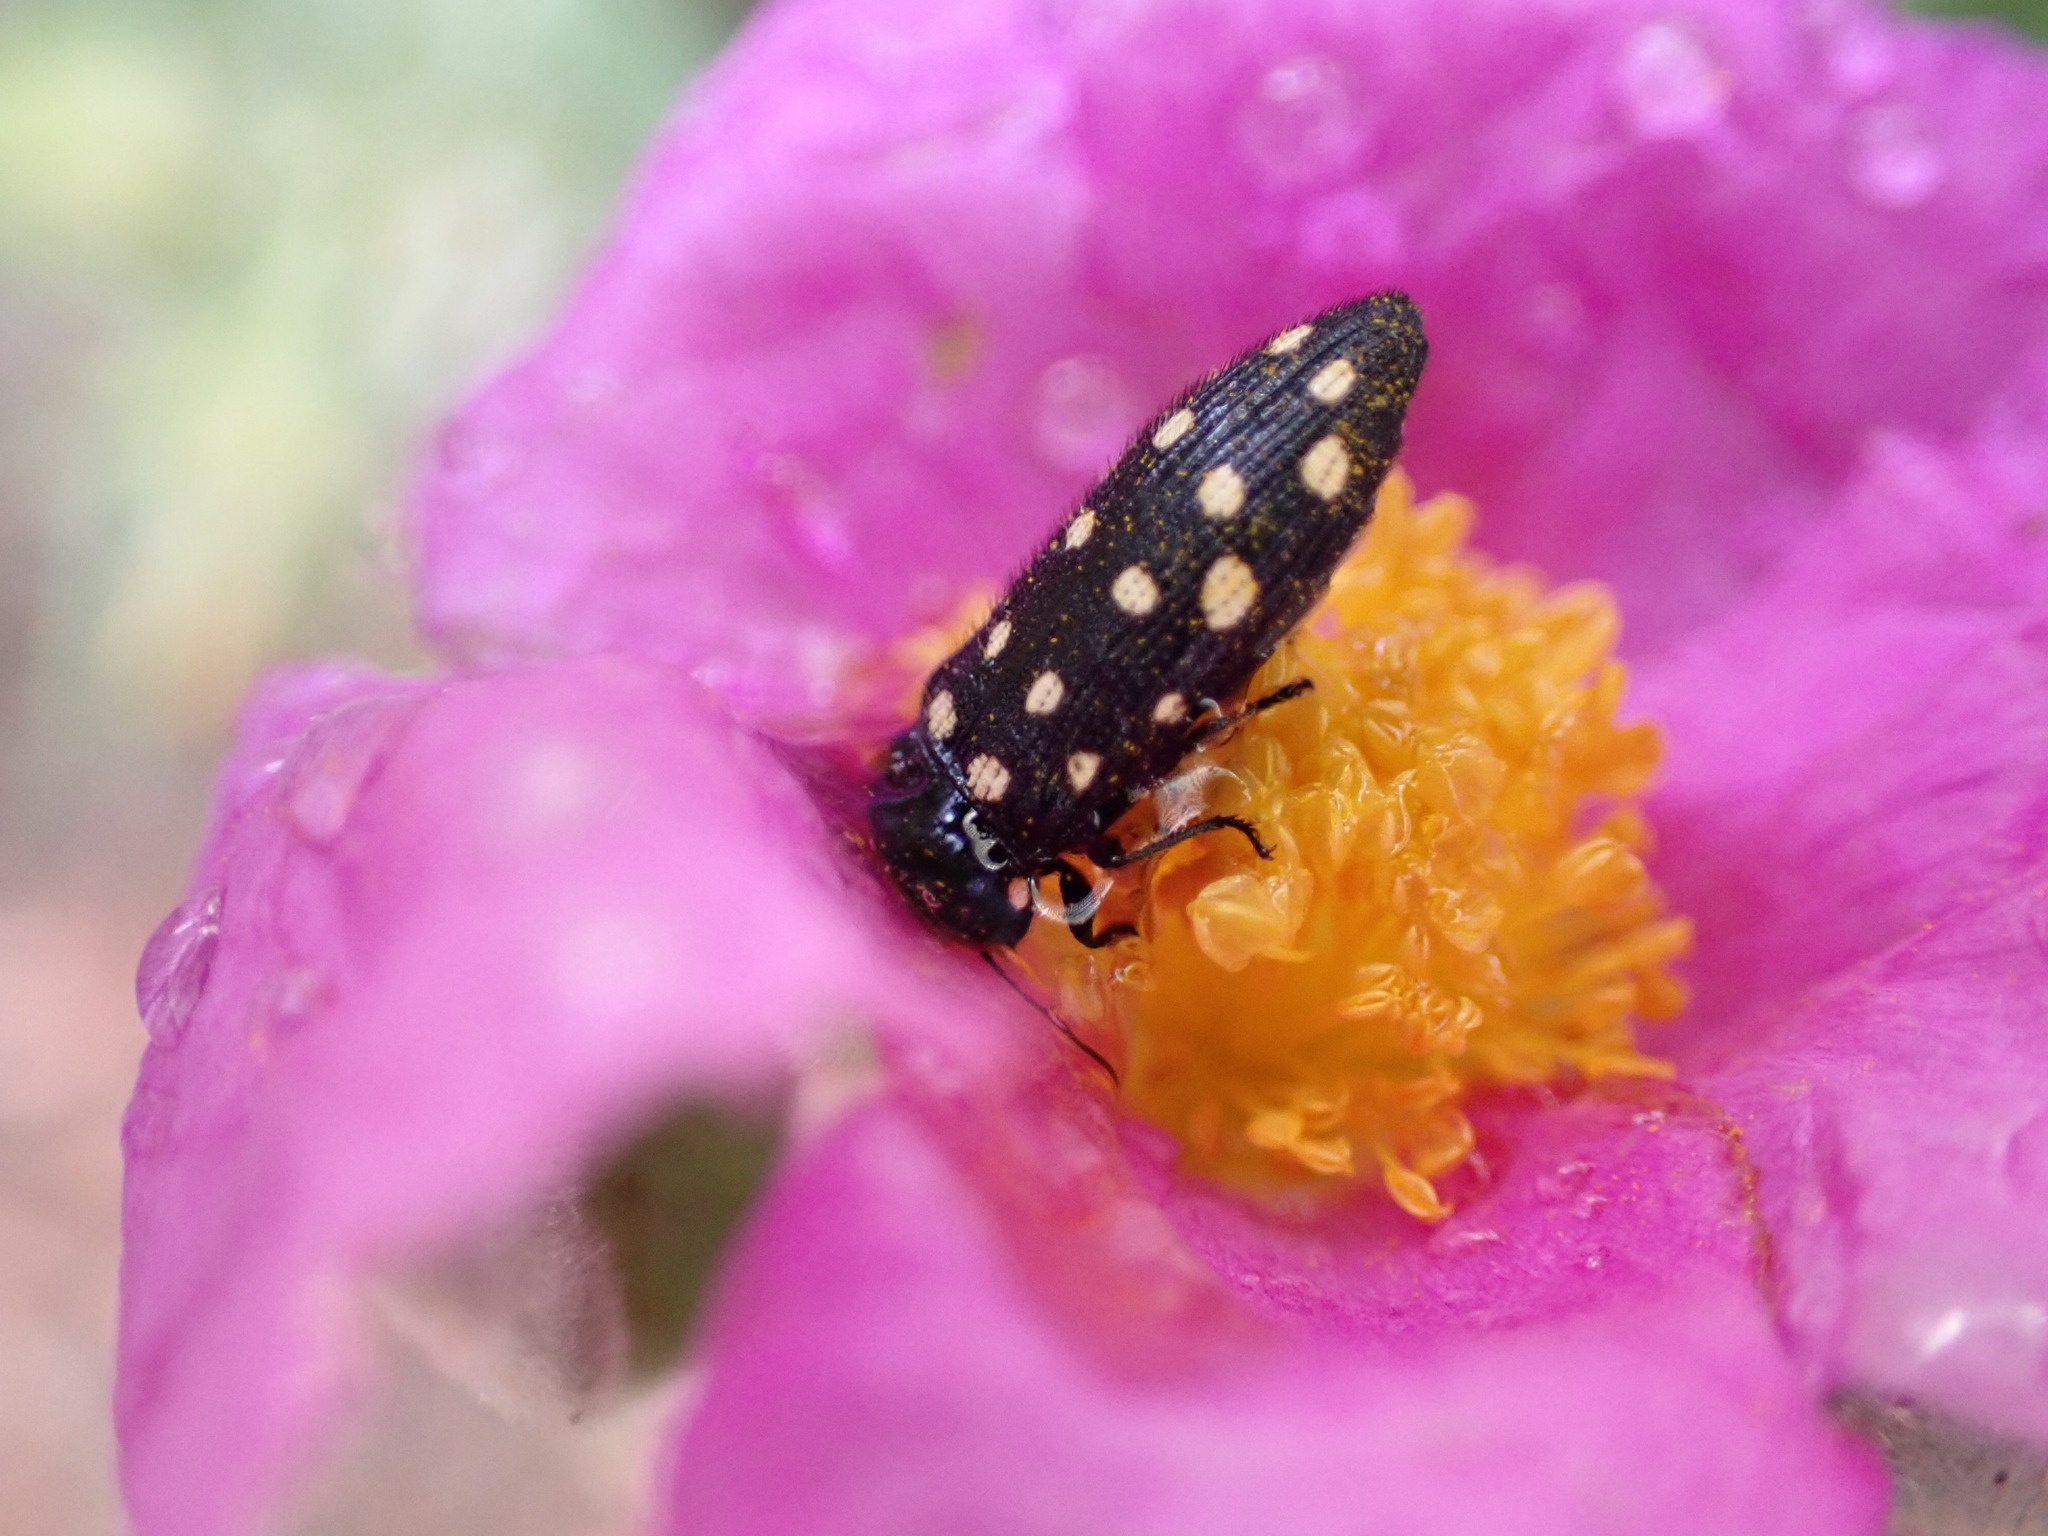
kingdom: Animalia
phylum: Arthropoda
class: Insecta
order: Coleoptera
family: Buprestidae
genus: Acmaeodera
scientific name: Acmaeodera degener
